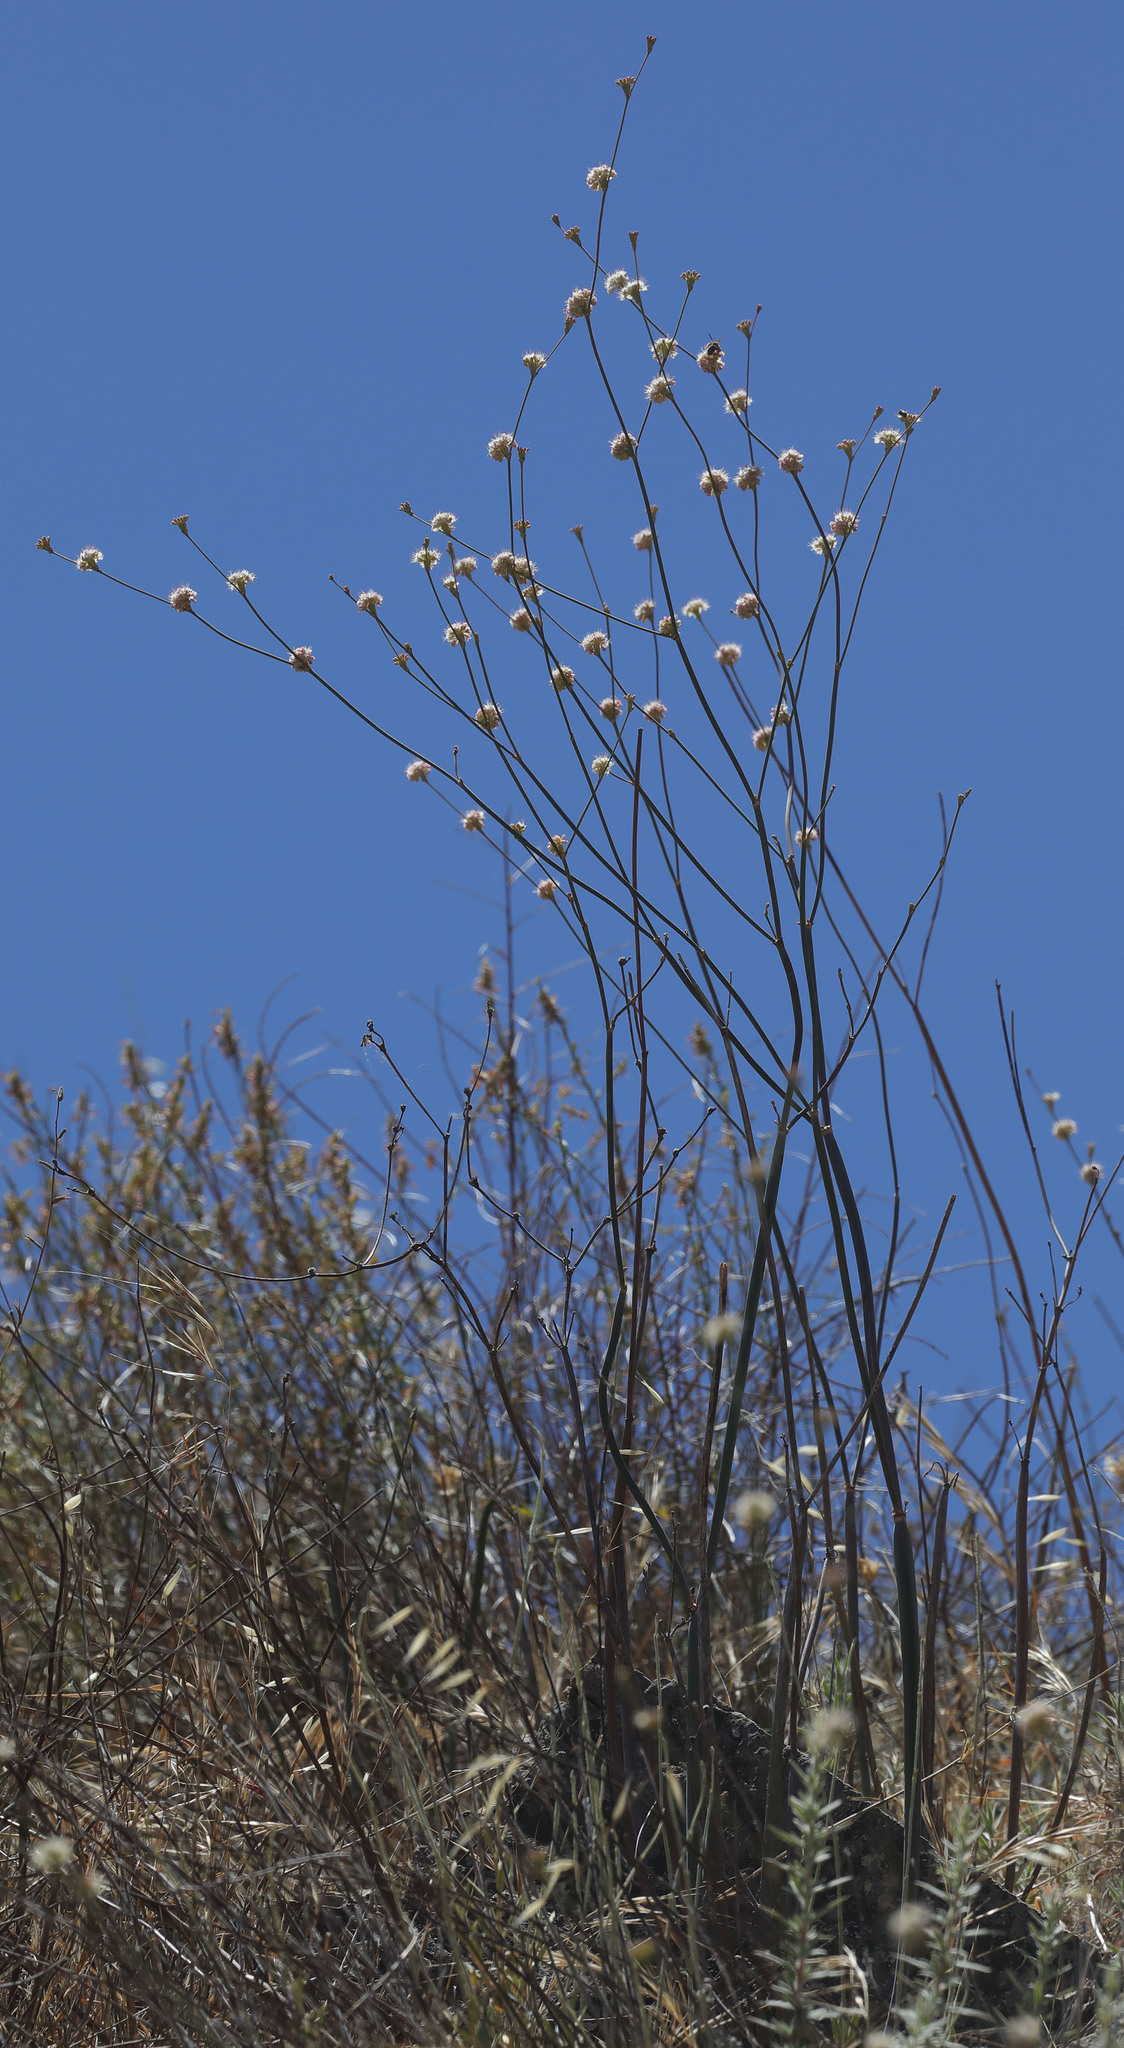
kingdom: Plantae
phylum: Tracheophyta
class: Magnoliopsida
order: Caryophyllales
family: Polygonaceae
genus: Eriogonum
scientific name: Eriogonum nudum
